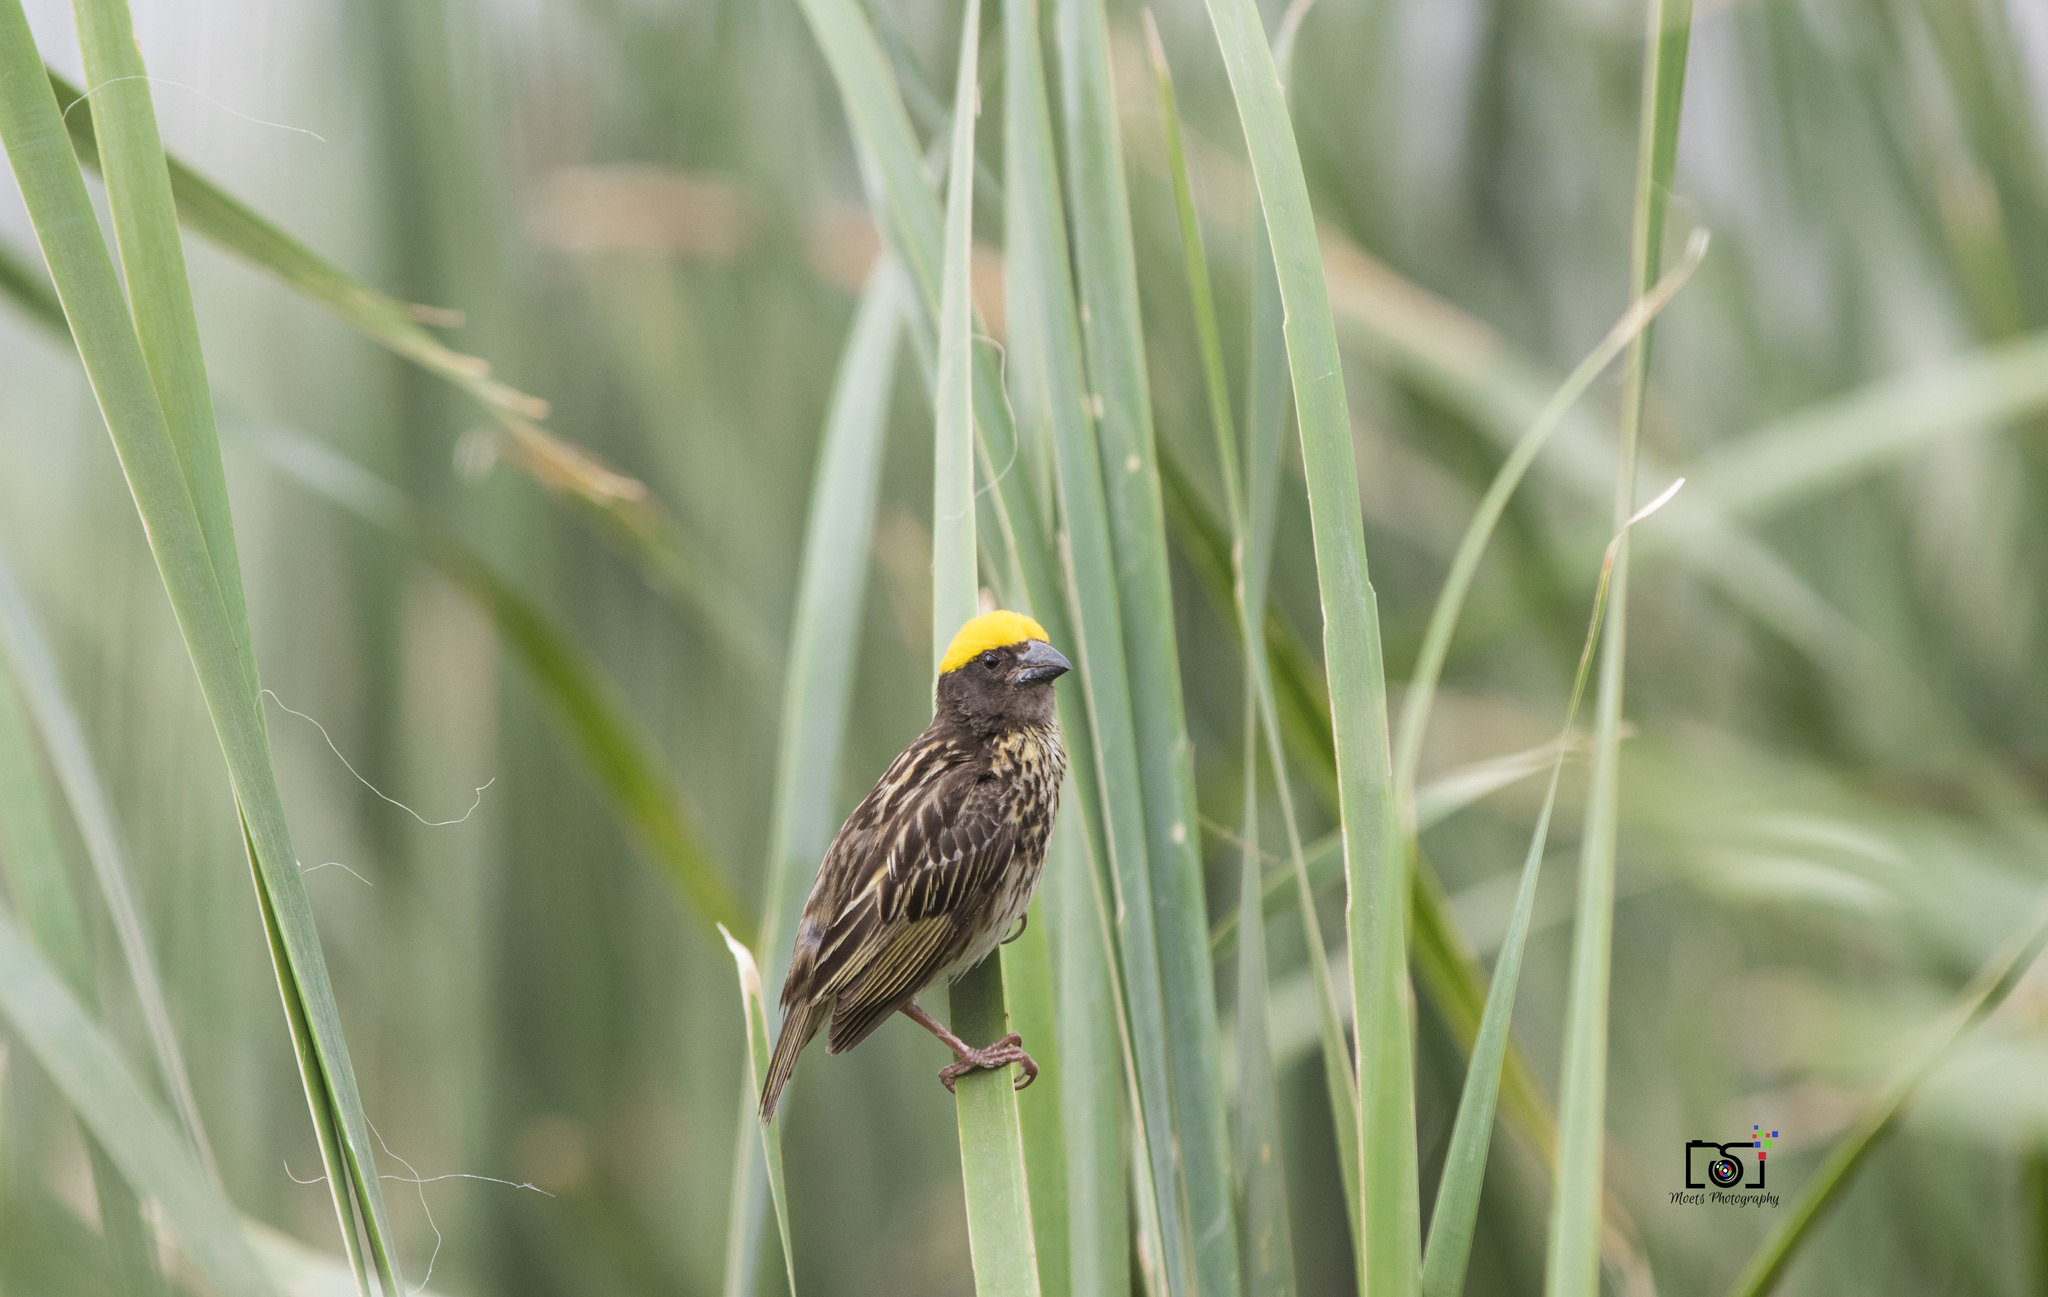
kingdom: Animalia
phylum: Chordata
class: Aves
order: Passeriformes
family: Ploceidae
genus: Ploceus
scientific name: Ploceus manyar
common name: Streaked weaver
